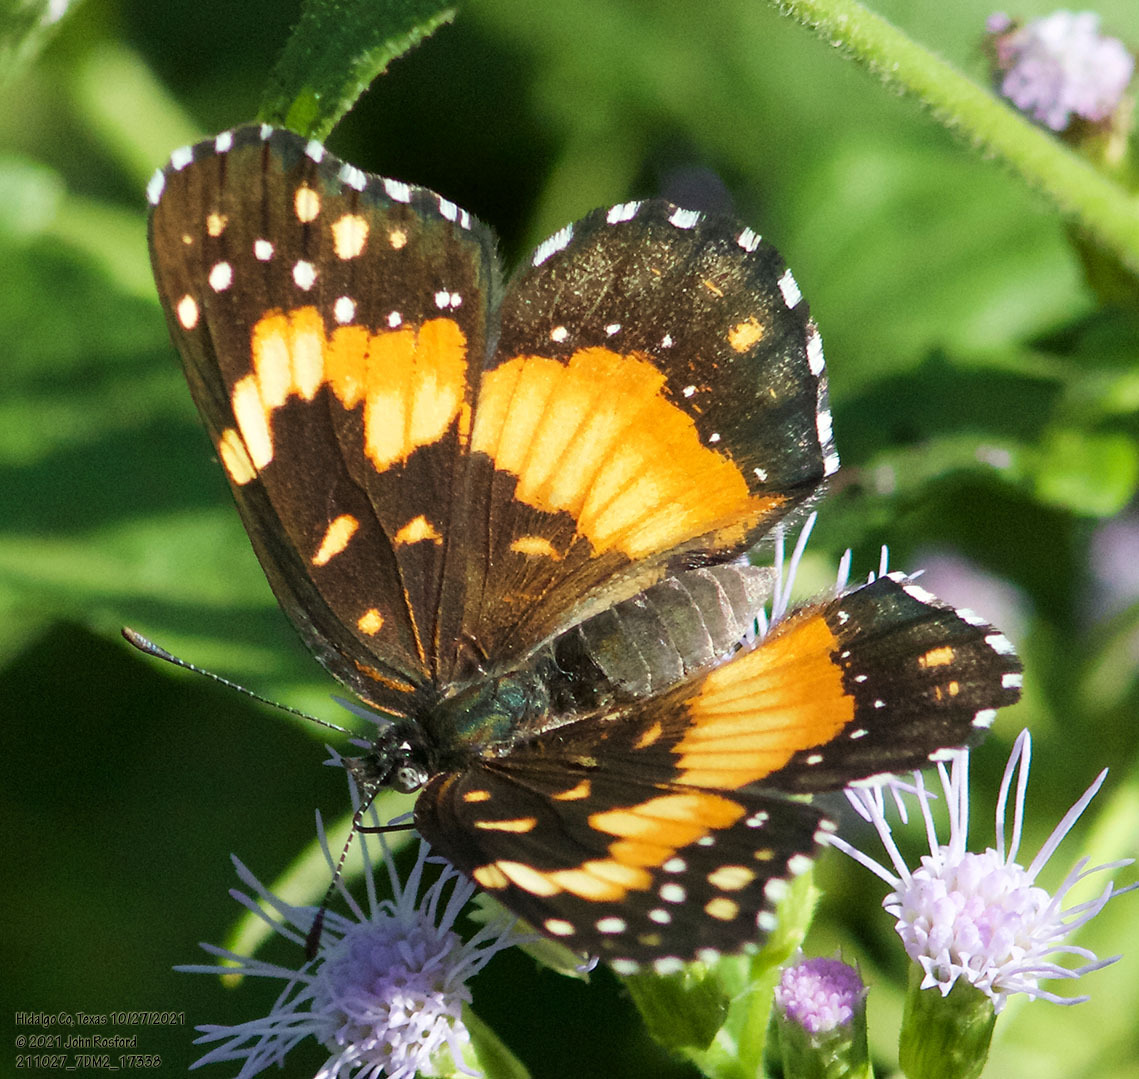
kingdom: Animalia
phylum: Arthropoda
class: Insecta
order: Lepidoptera
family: Nymphalidae
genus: Chlosyne
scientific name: Chlosyne lacinia
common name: Bordered patch
